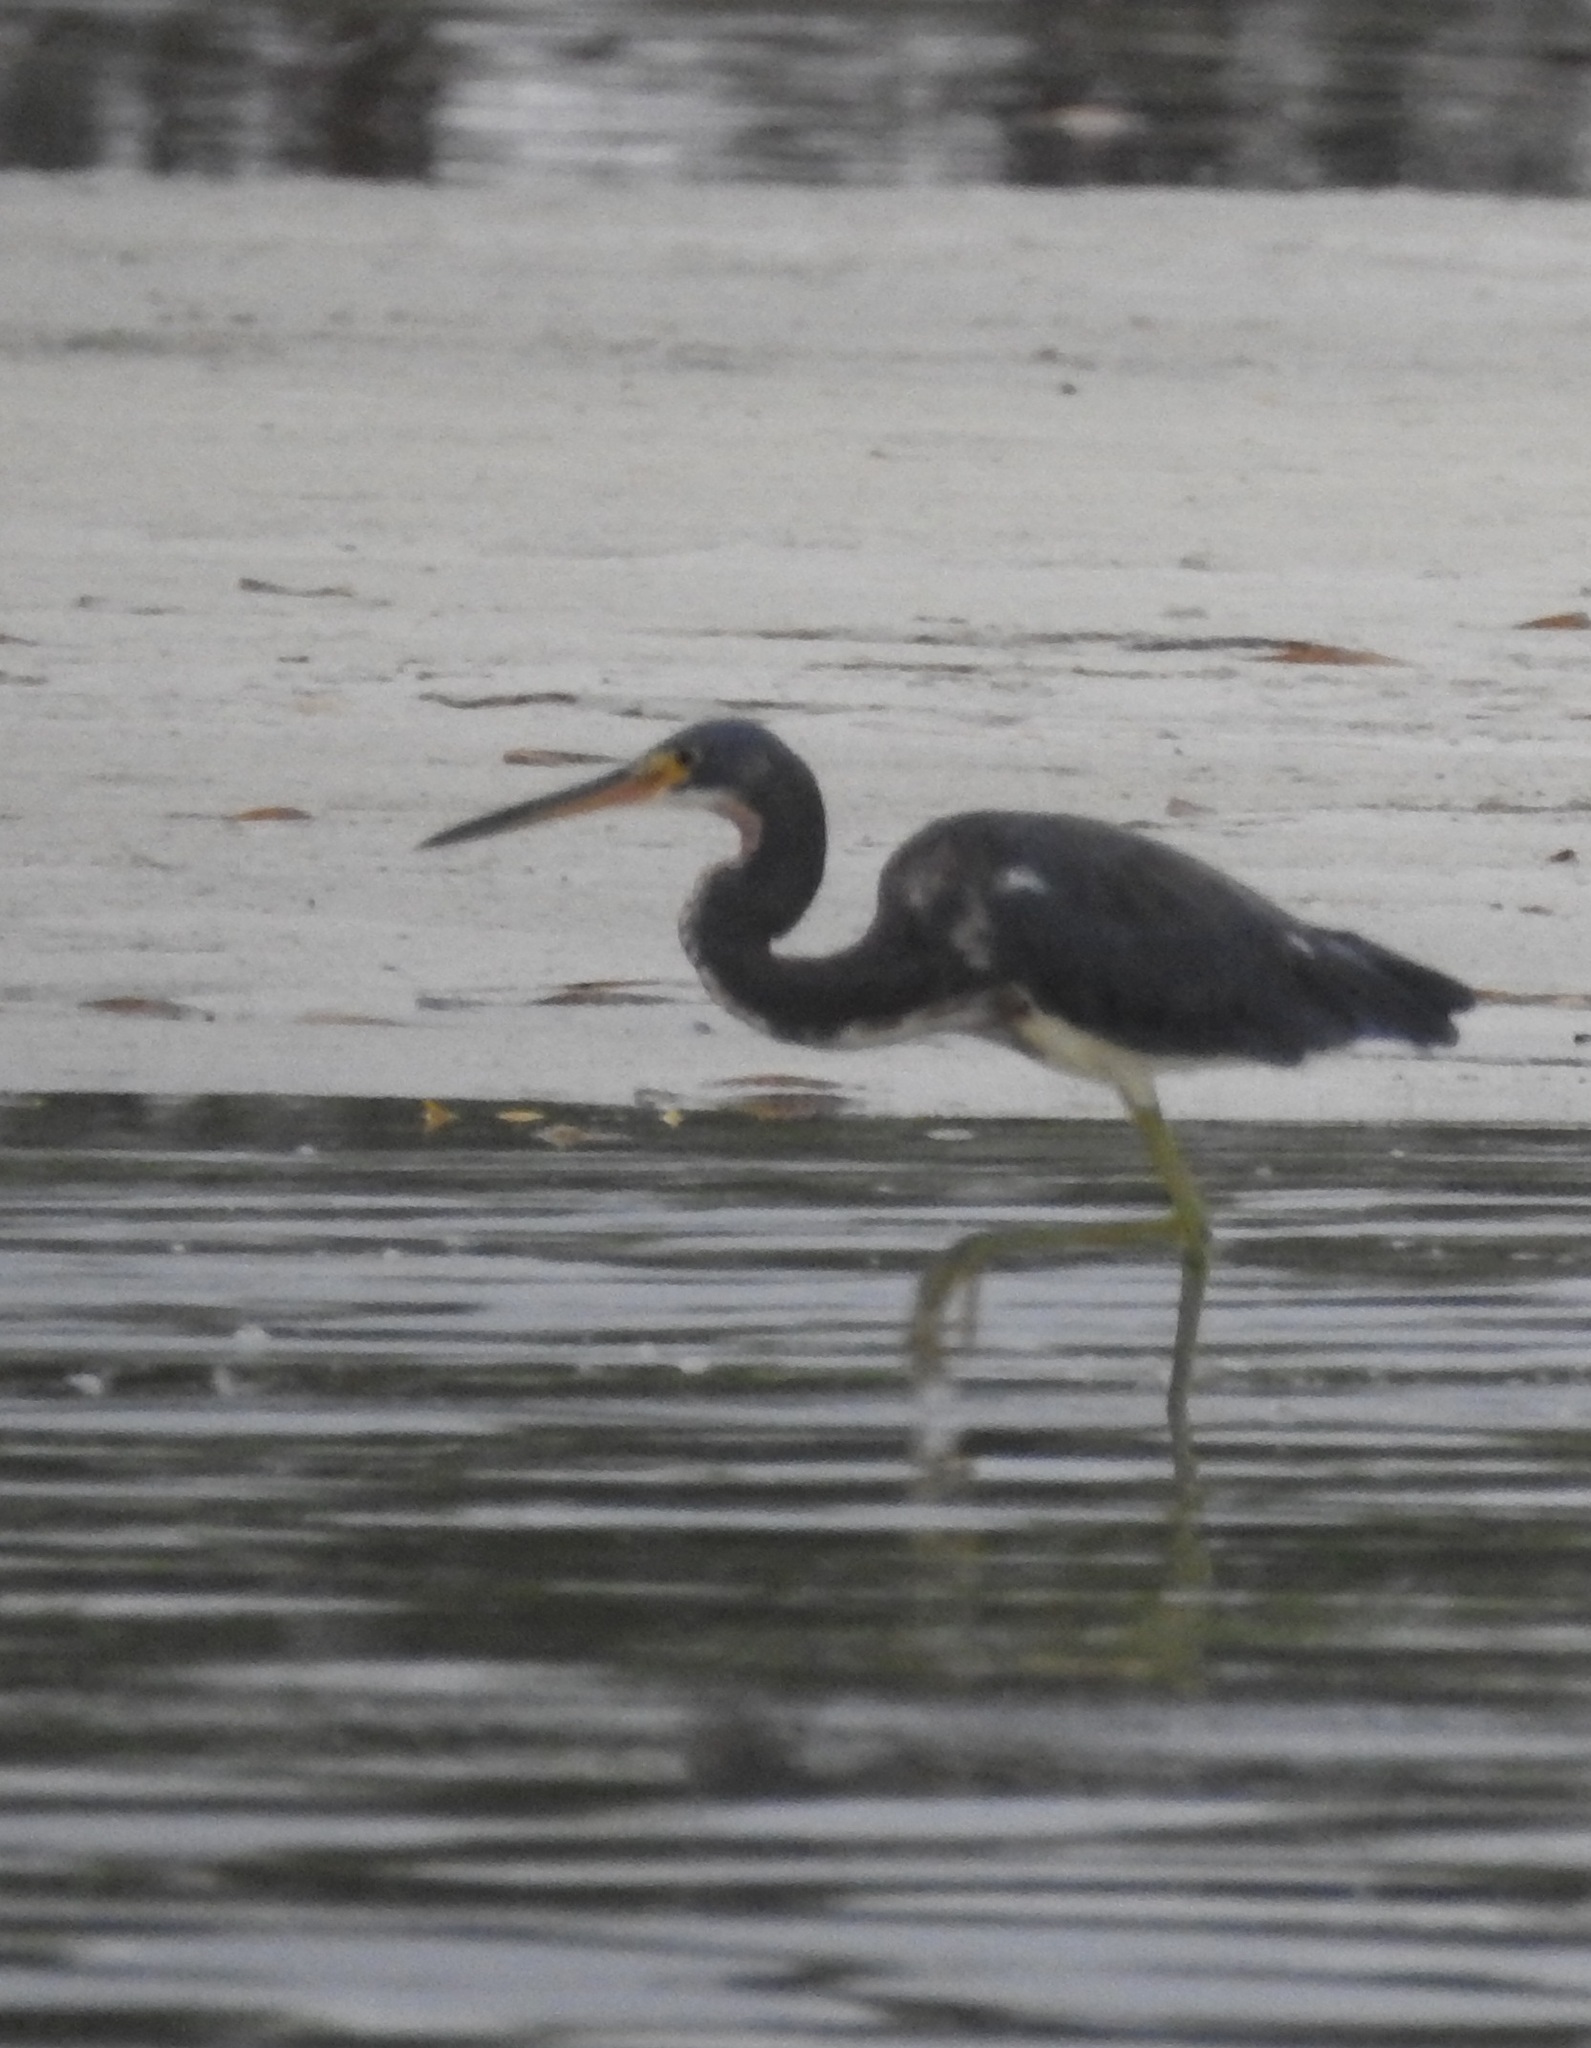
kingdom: Animalia
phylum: Chordata
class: Aves
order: Pelecaniformes
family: Ardeidae
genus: Egretta
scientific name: Egretta tricolor
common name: Tricolored heron
